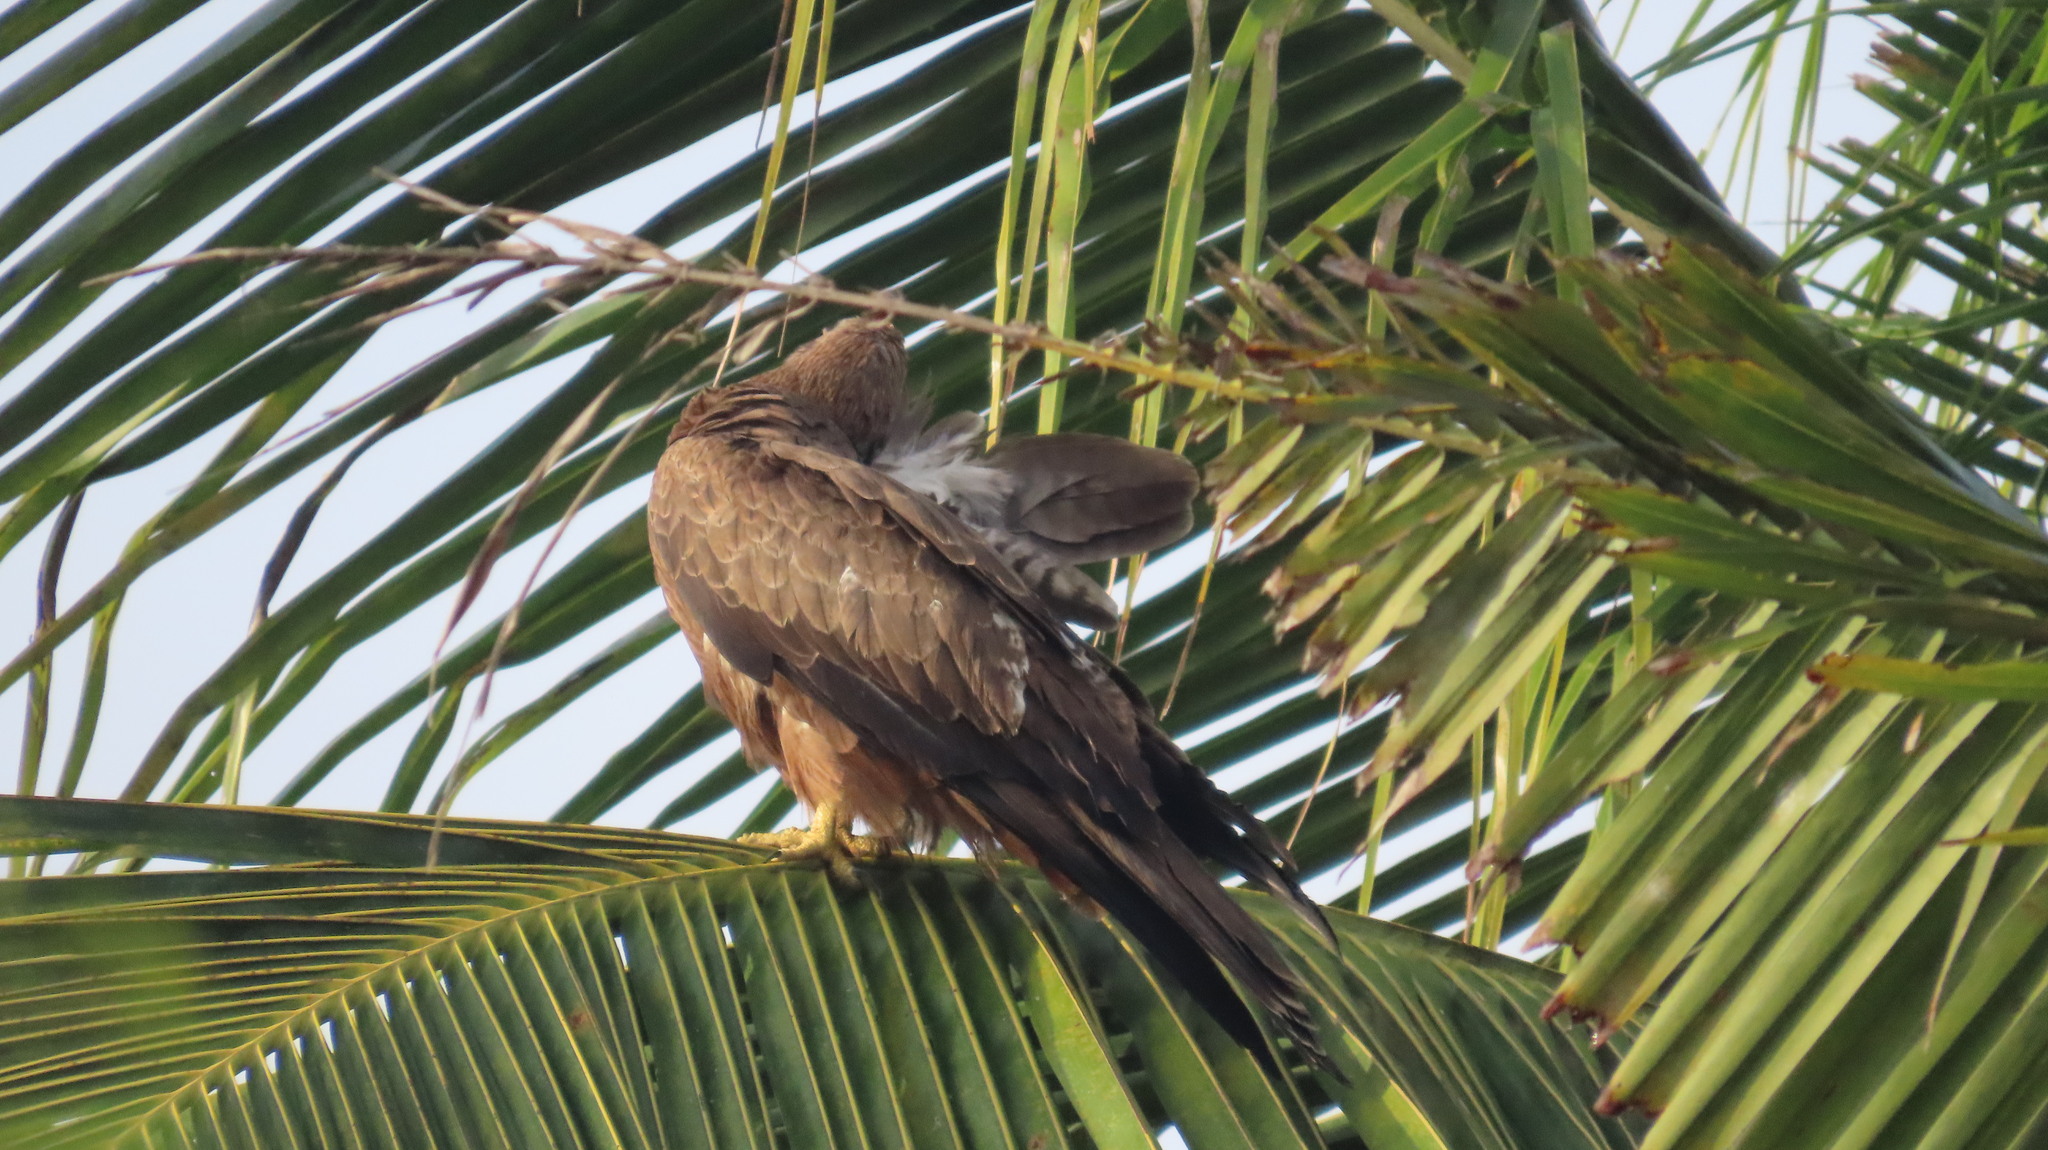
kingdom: Animalia
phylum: Chordata
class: Aves
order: Accipitriformes
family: Accipitridae
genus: Milvus
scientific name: Milvus migrans
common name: Black kite
